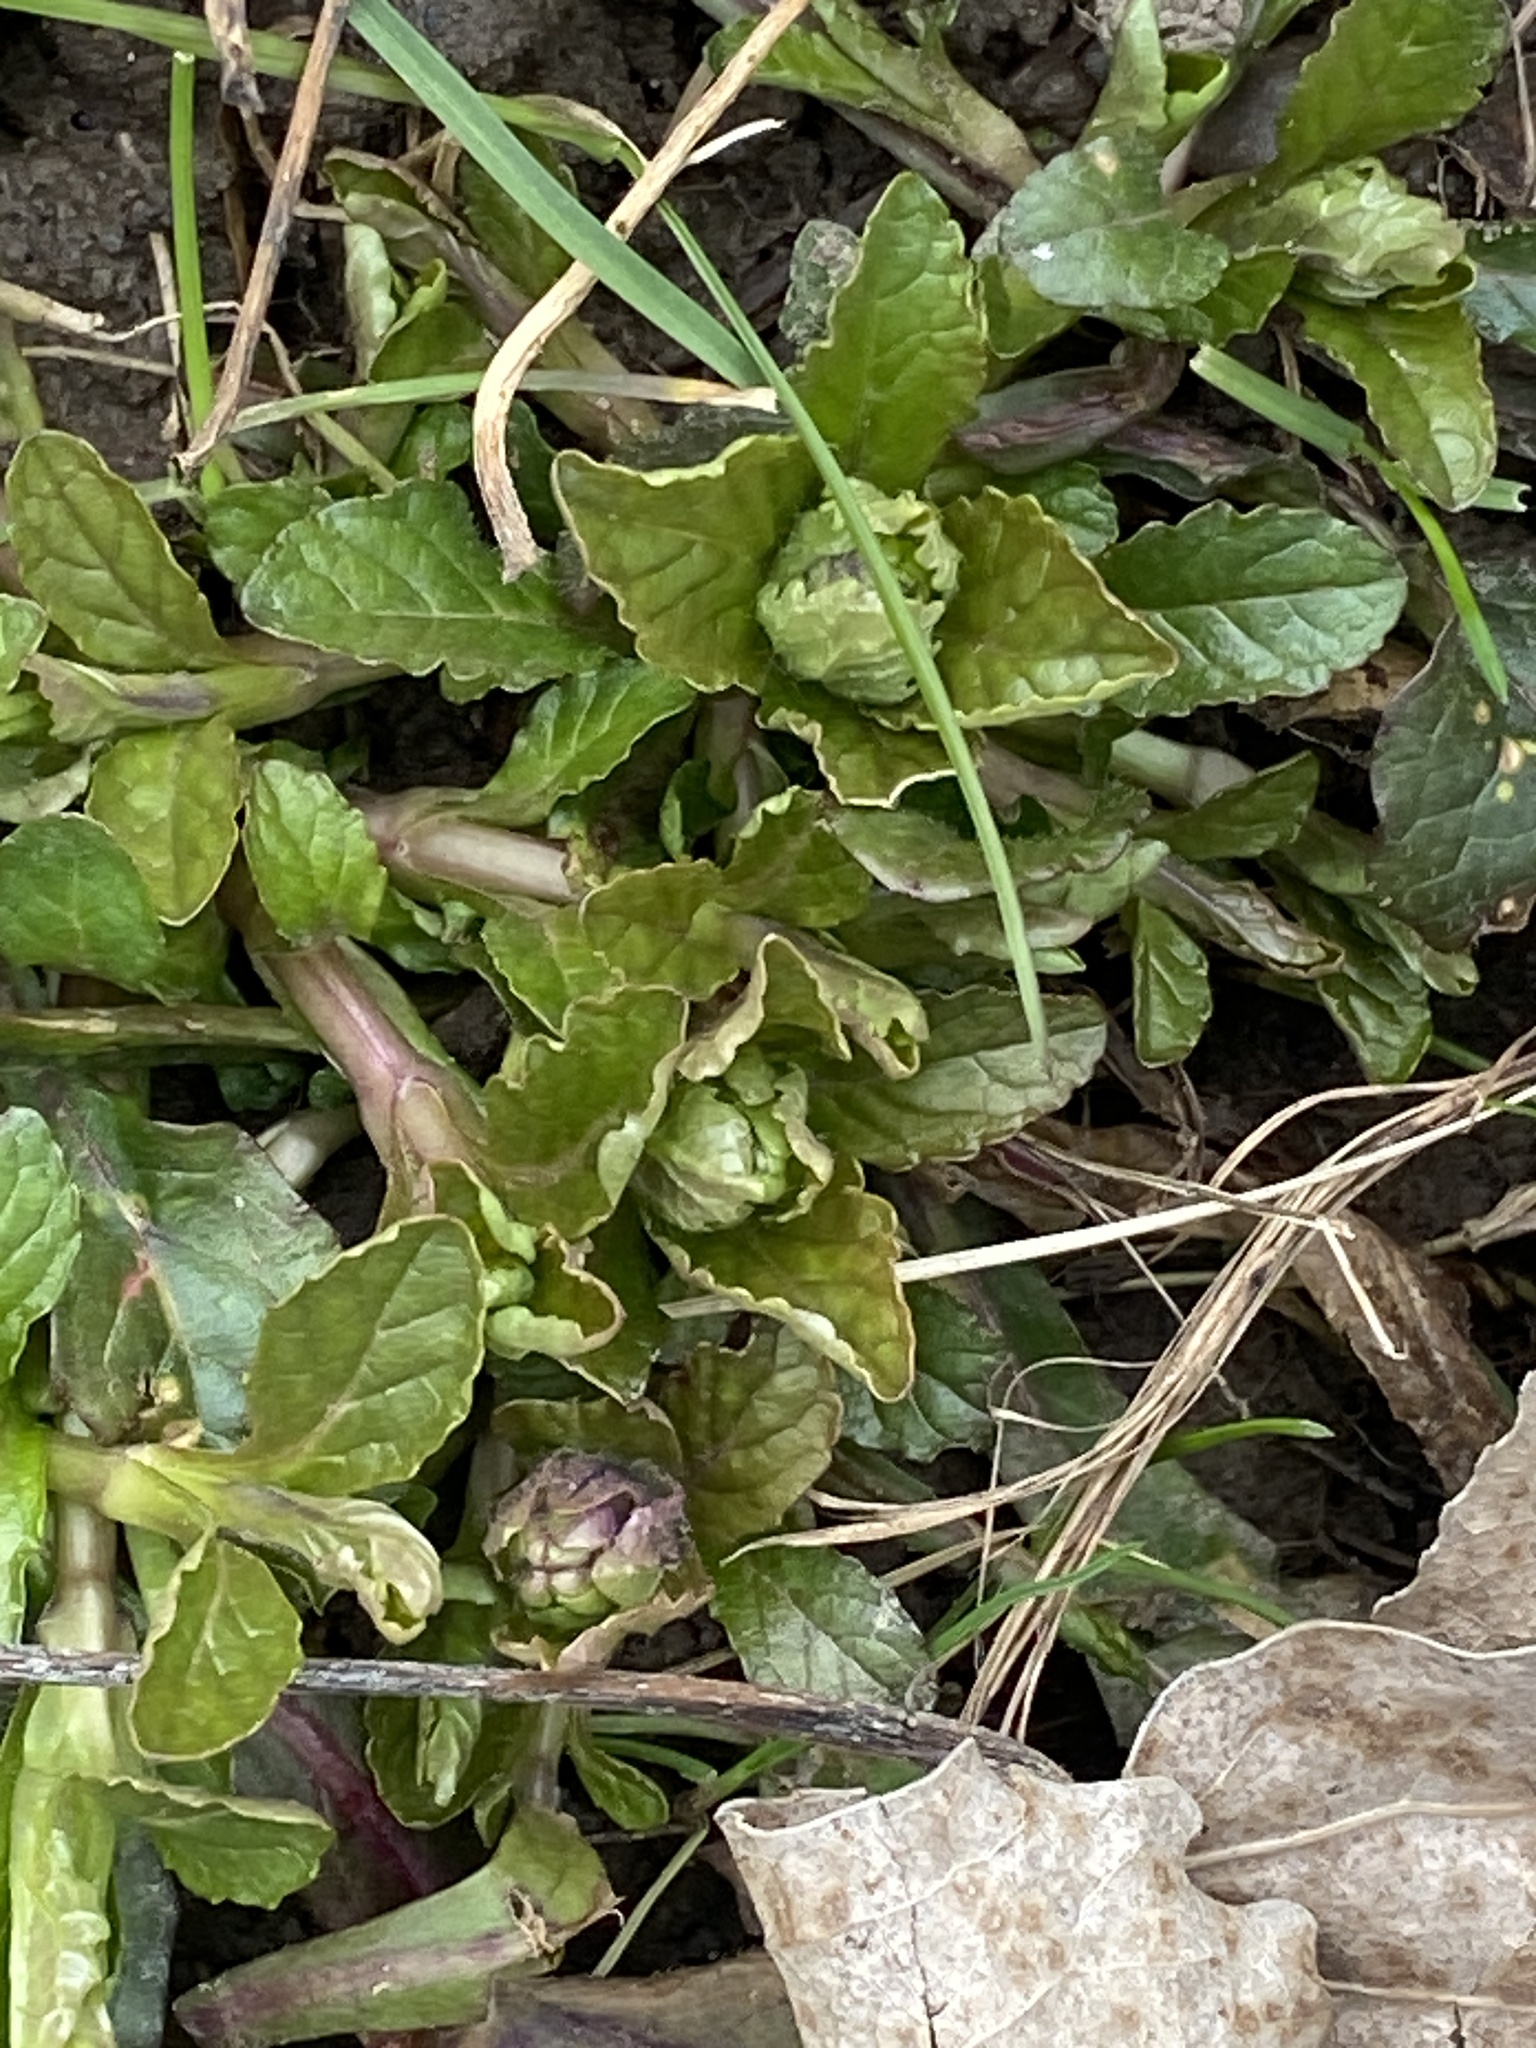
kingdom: Plantae
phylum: Tracheophyta
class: Magnoliopsida
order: Lamiales
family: Lamiaceae
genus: Ajuga
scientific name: Ajuga reptans
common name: Bugle
